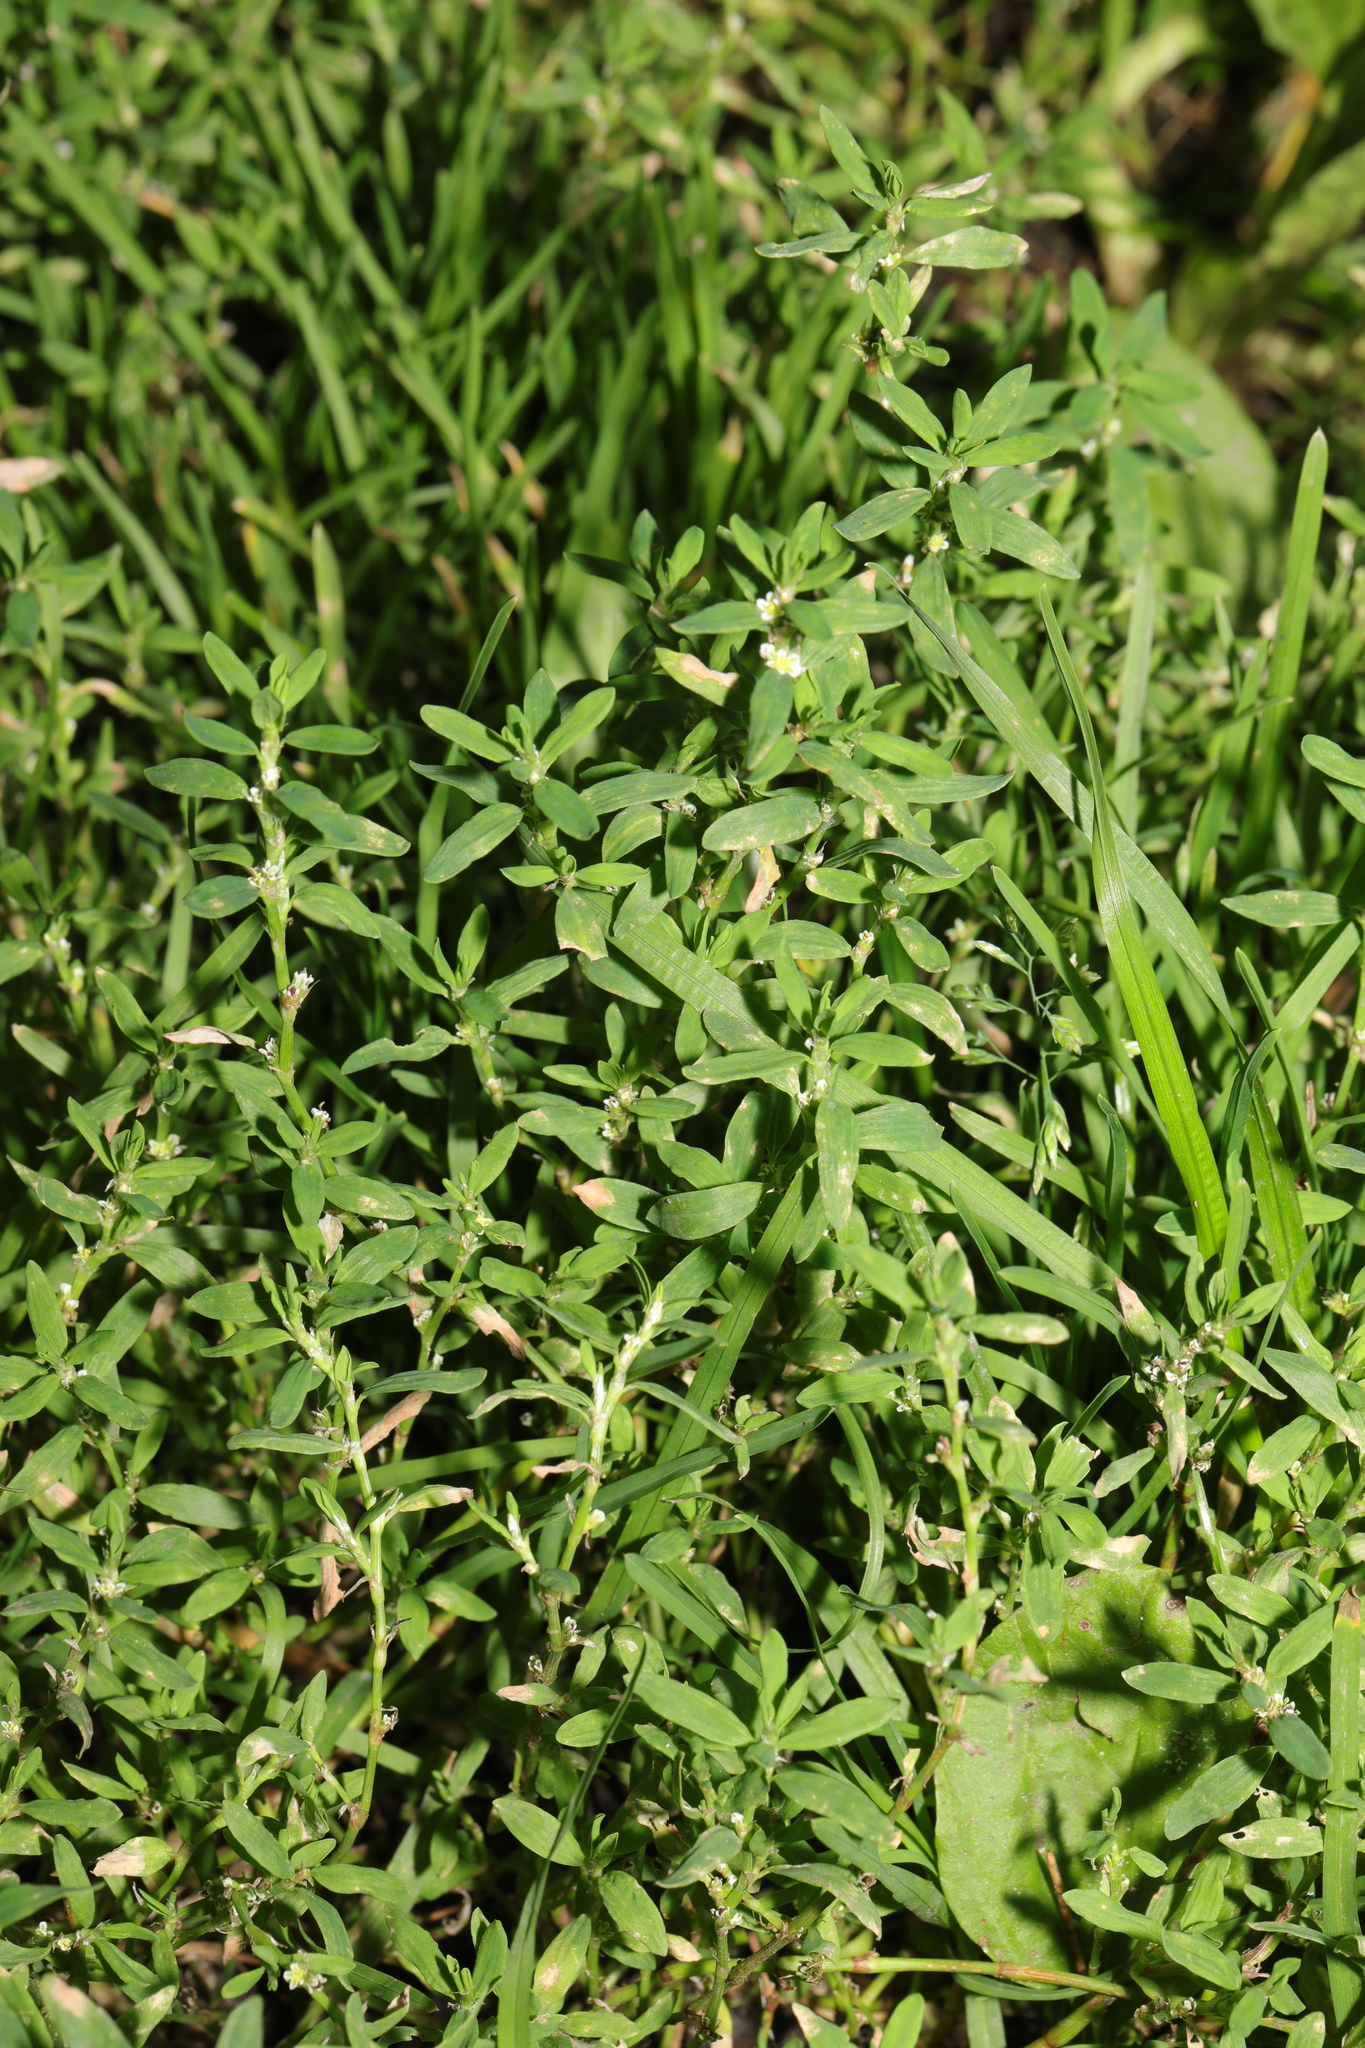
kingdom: Plantae
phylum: Tracheophyta
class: Magnoliopsida
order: Caryophyllales
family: Polygonaceae
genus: Polygonum
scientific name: Polygonum aviculare
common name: Prostrate knotweed
